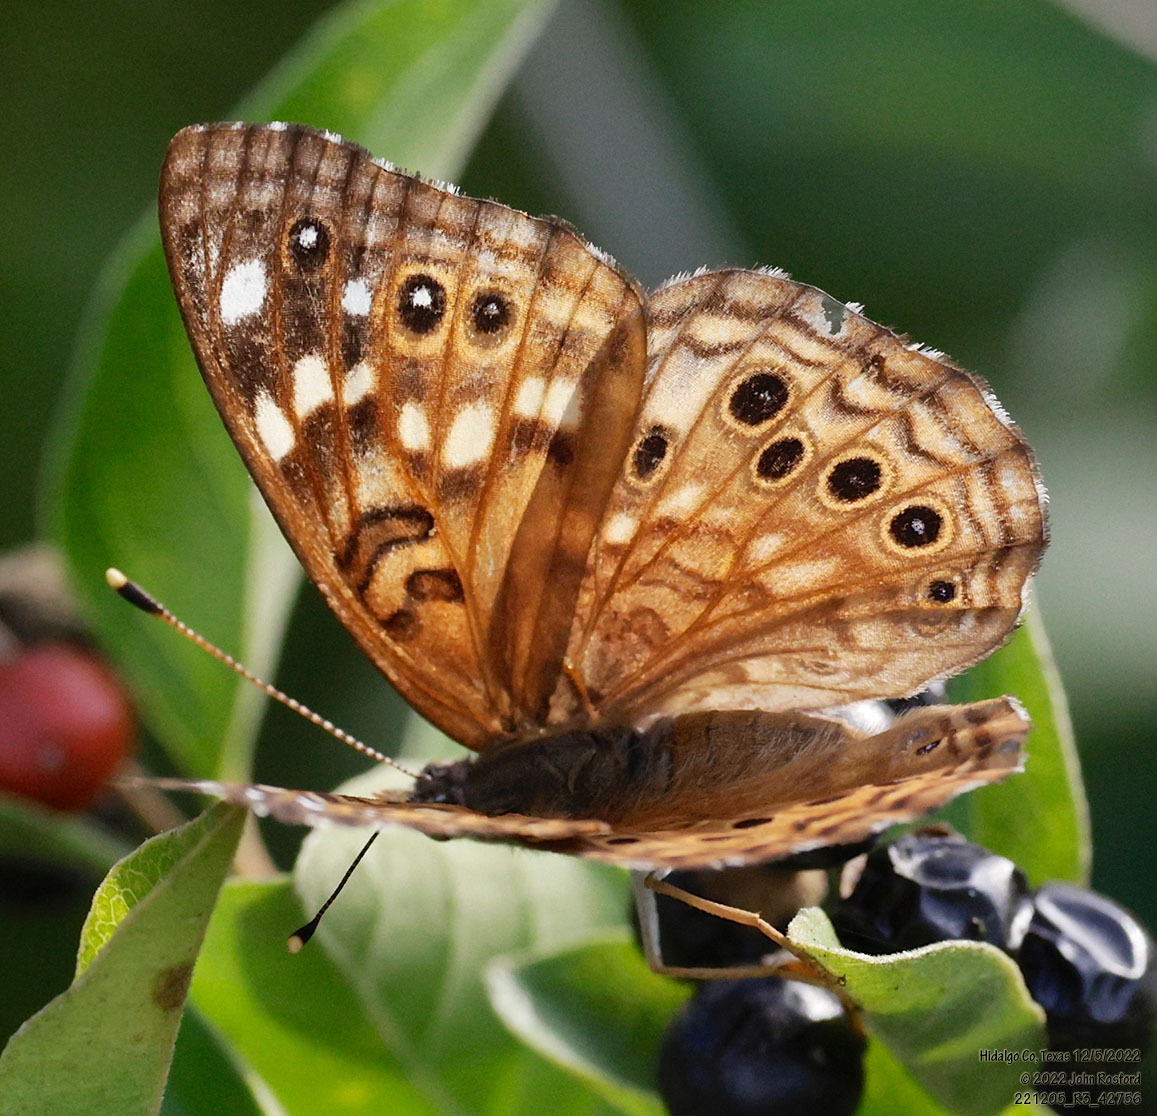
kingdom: Animalia
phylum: Arthropoda
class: Insecta
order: Lepidoptera
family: Nymphalidae
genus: Asterocampa
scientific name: Asterocampa celtis
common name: Hackberry emperor
